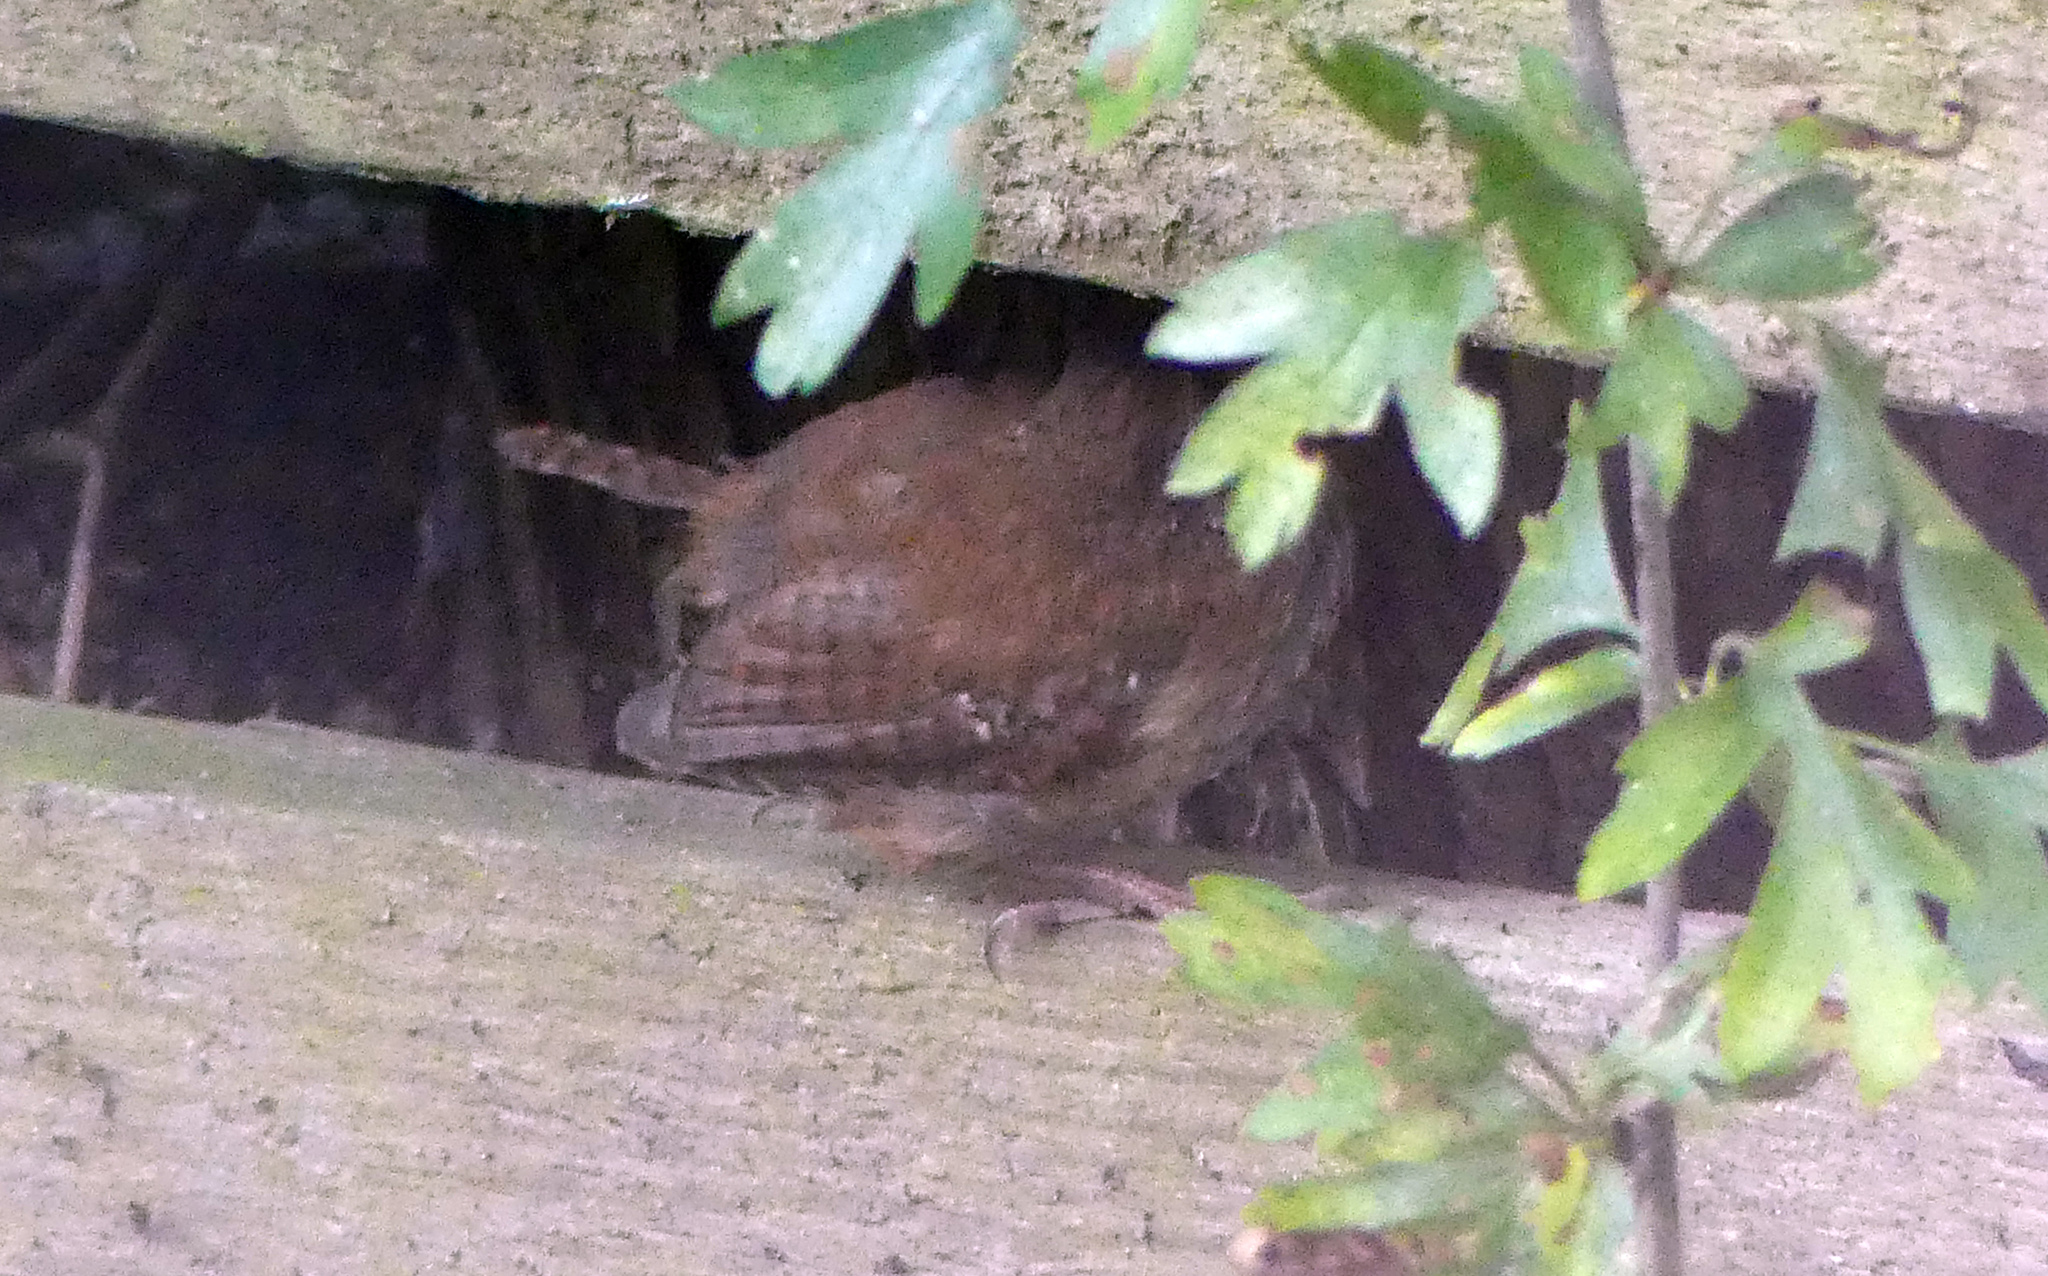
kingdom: Animalia
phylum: Chordata
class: Aves
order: Passeriformes
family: Troglodytidae
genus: Troglodytes
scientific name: Troglodytes troglodytes
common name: Eurasian wren
